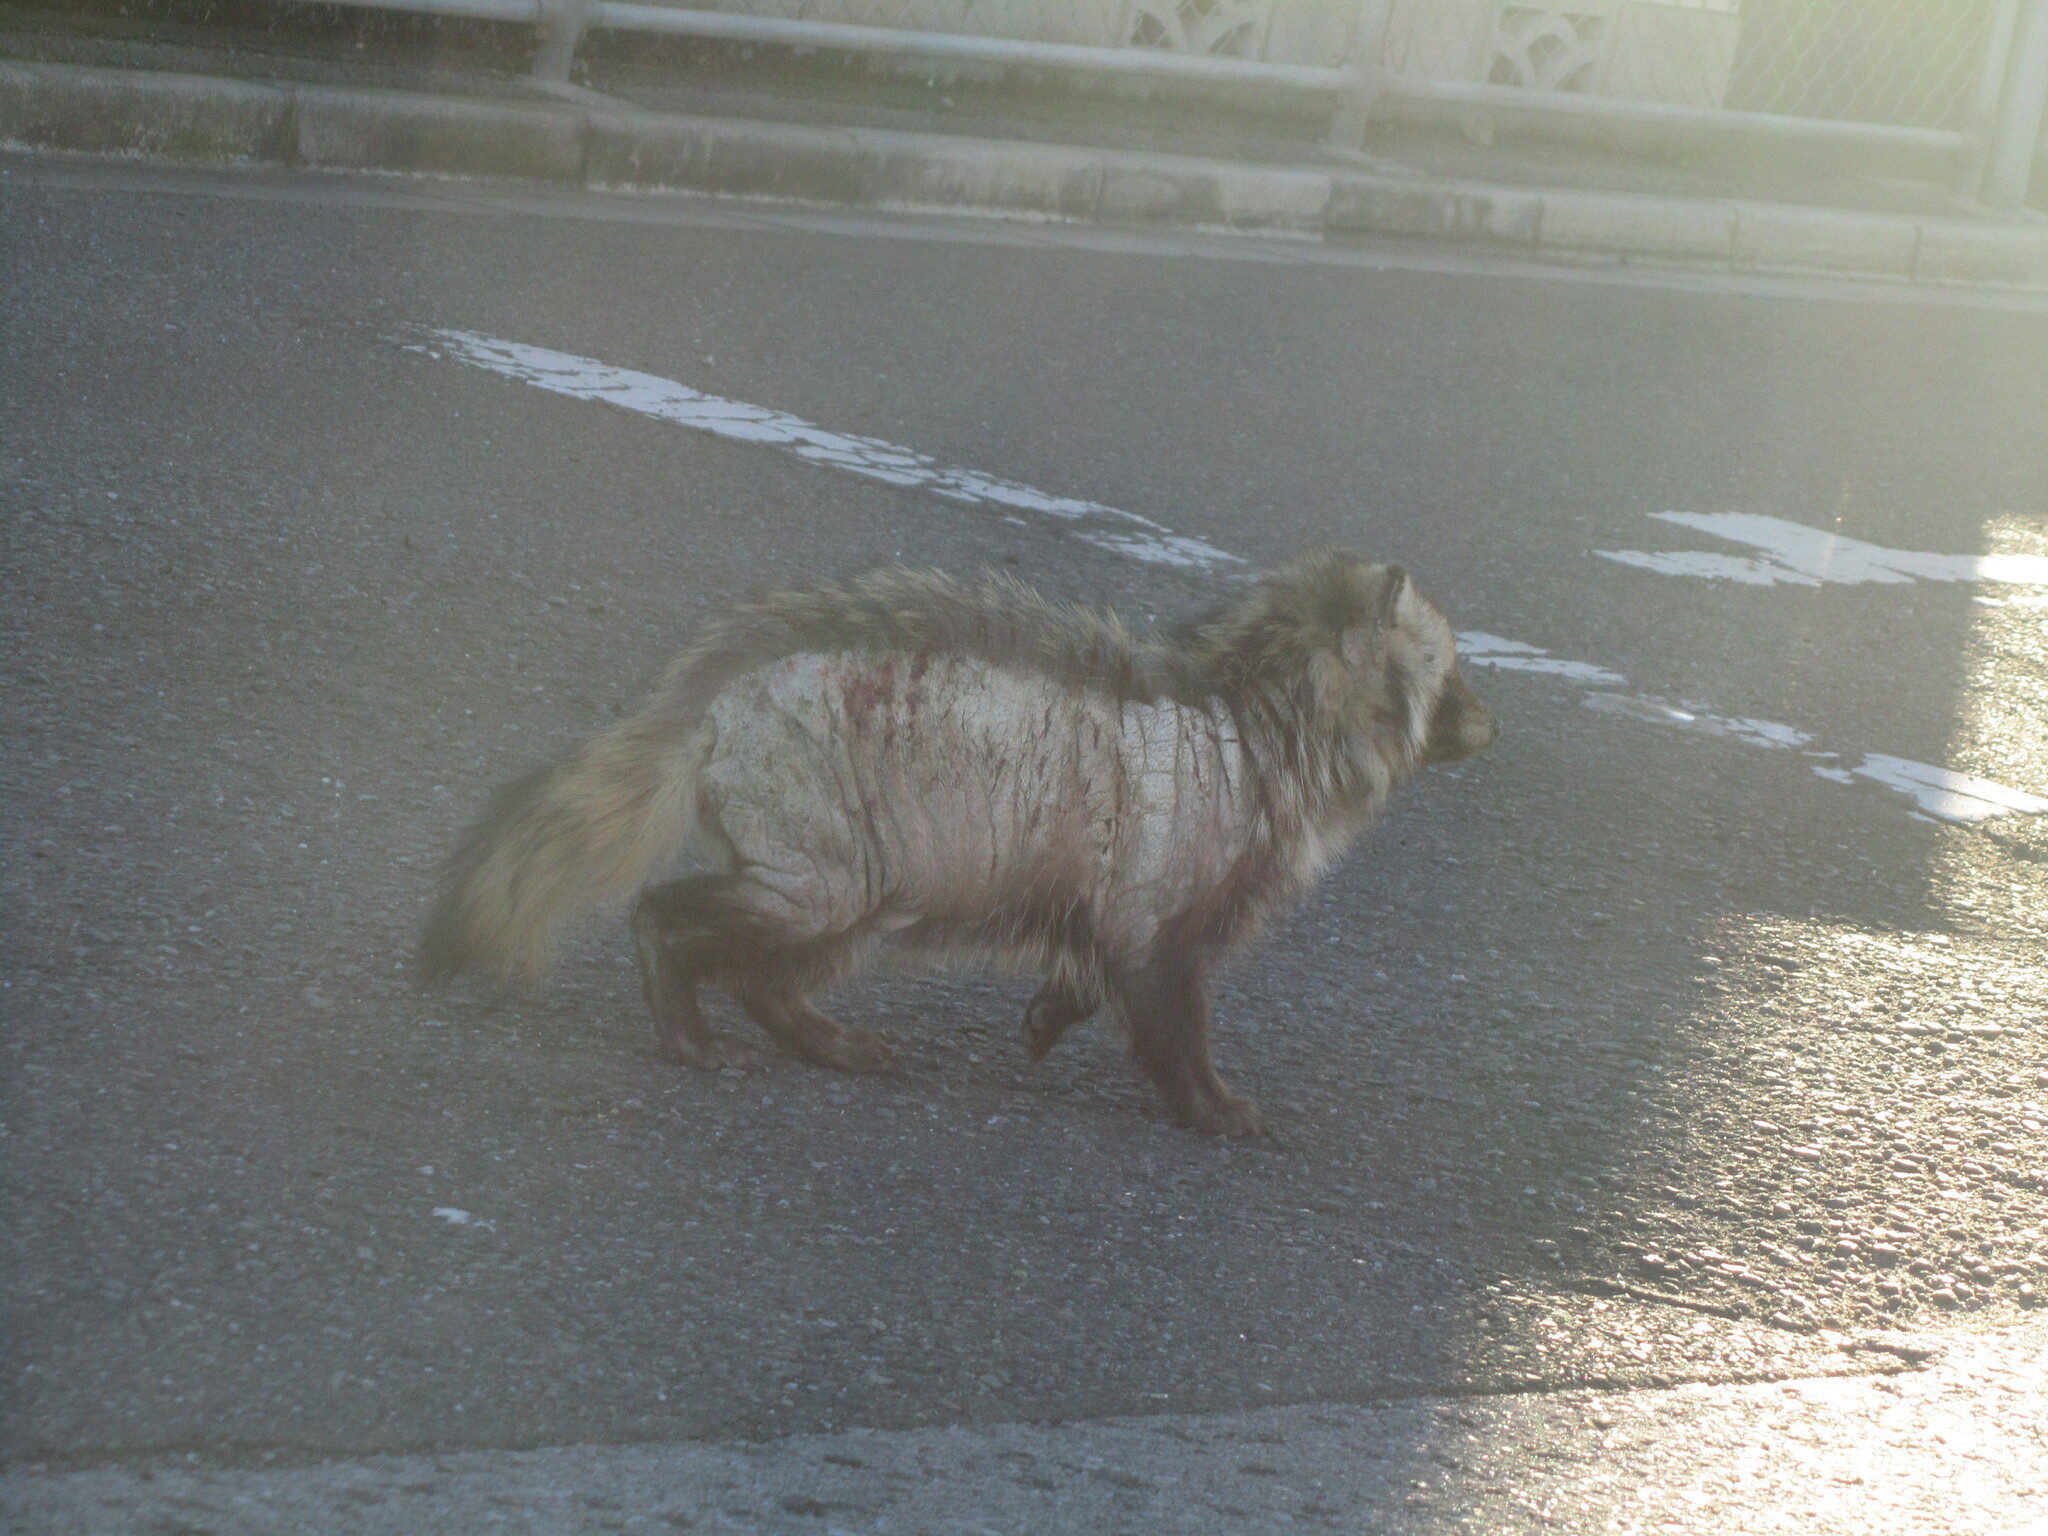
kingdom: Animalia
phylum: Chordata
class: Mammalia
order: Carnivora
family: Canidae
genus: Nyctereutes
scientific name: Nyctereutes
